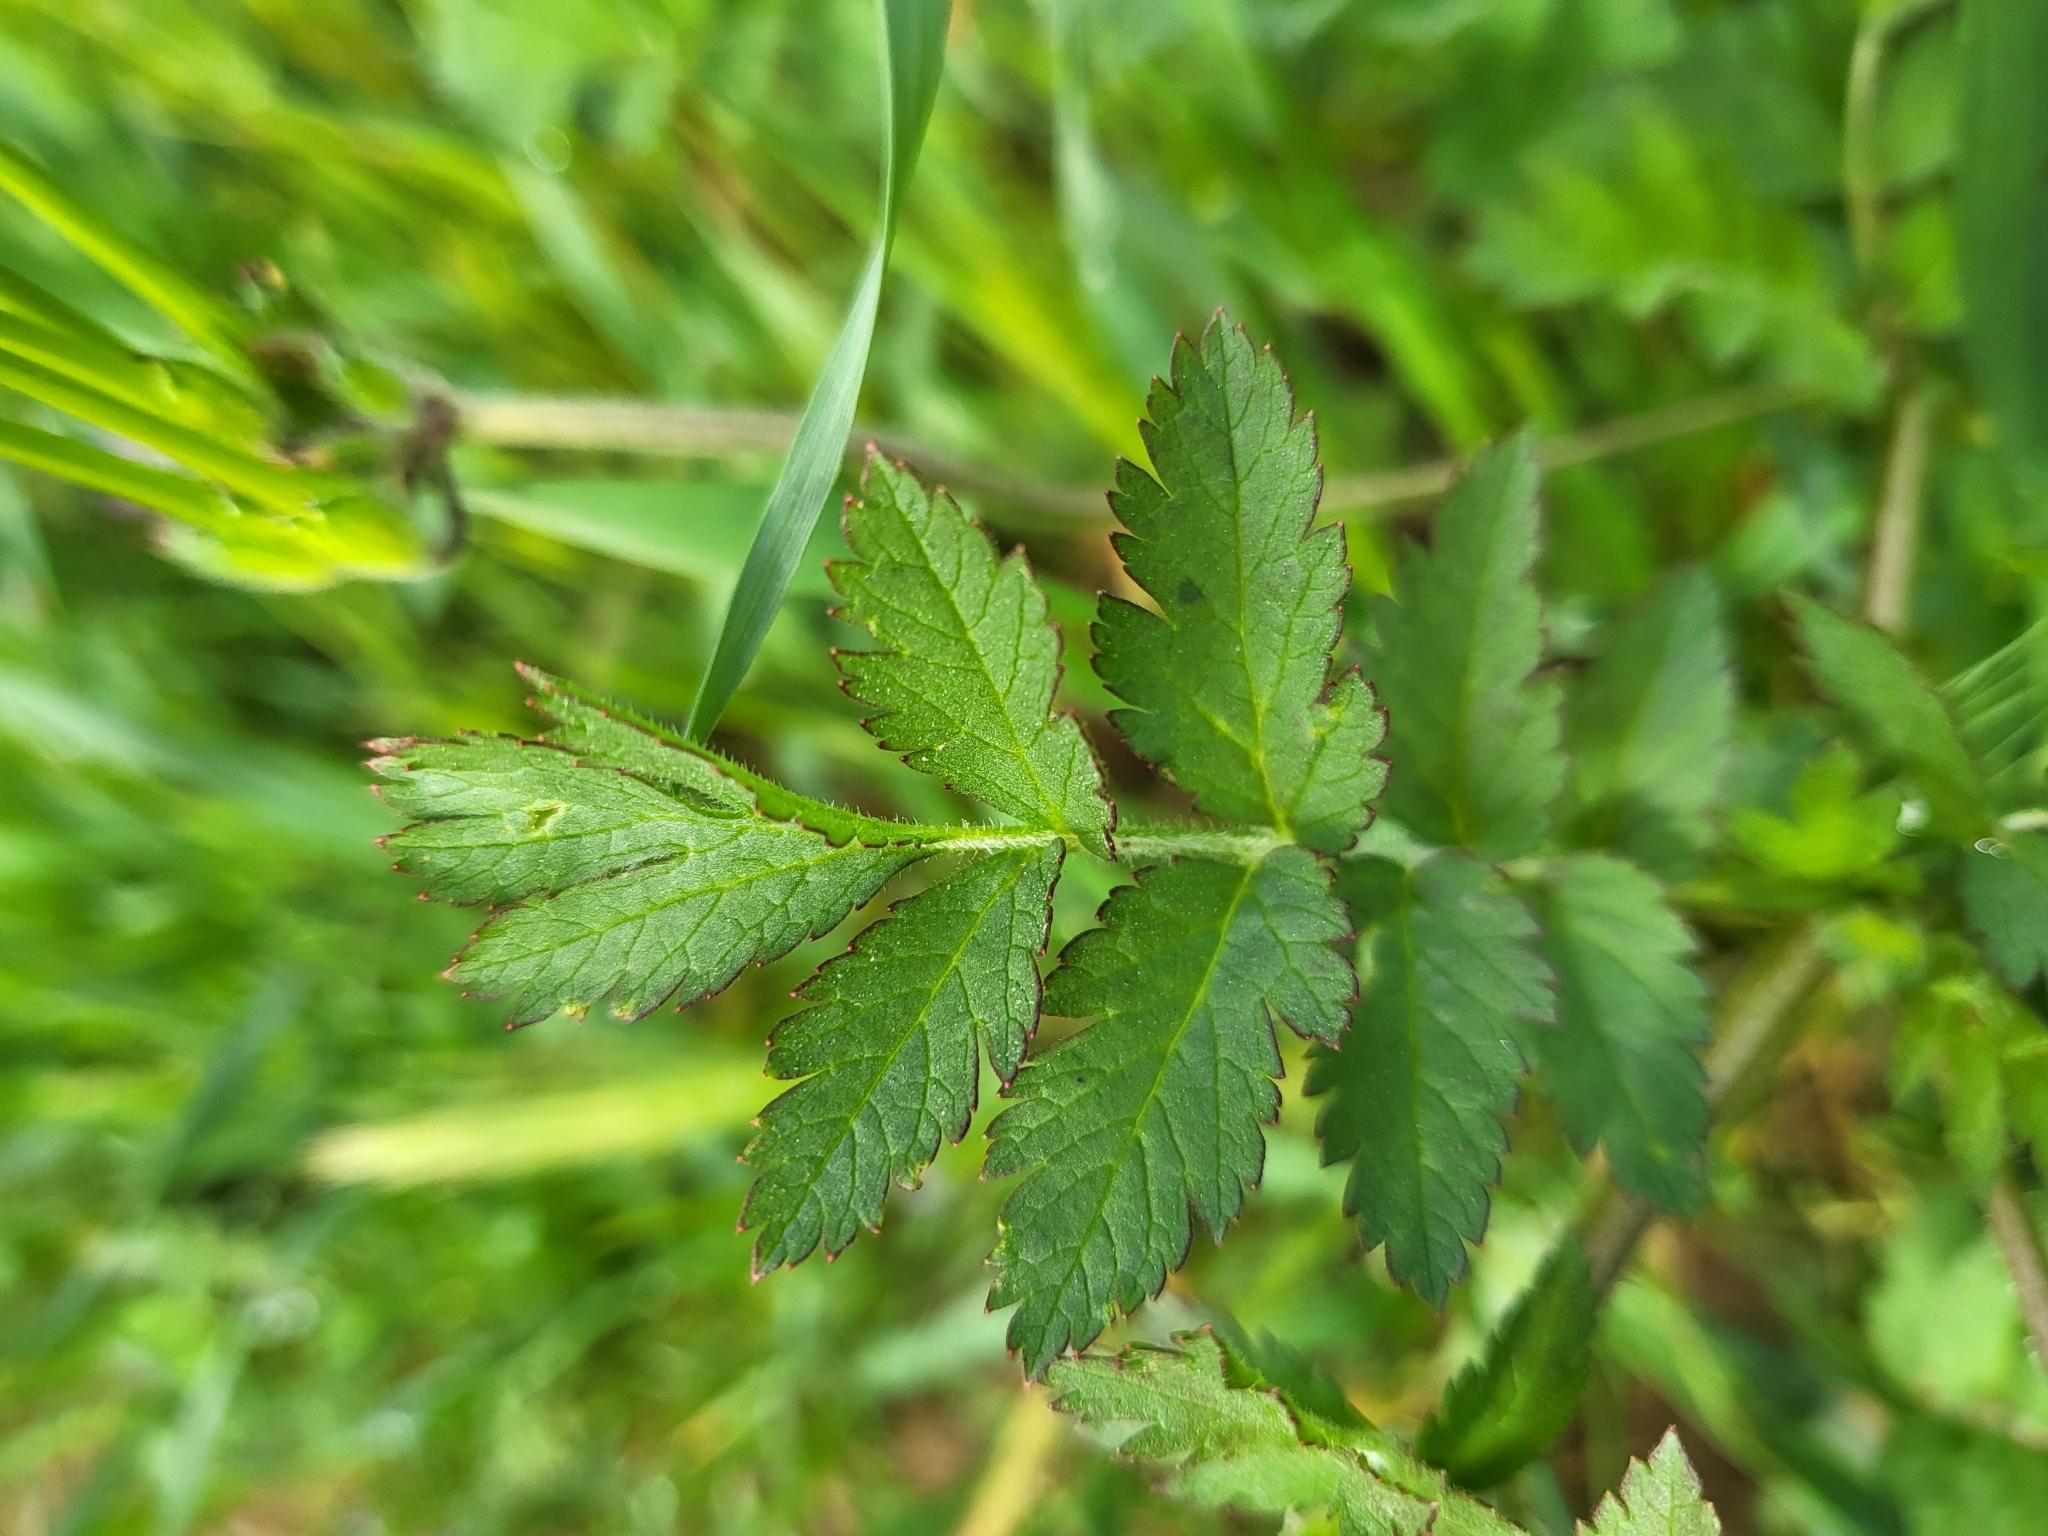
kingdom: Plantae
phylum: Tracheophyta
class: Magnoliopsida
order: Geraniales
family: Geraniaceae
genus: Erodium
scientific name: Erodium moschatum
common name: Musk stork's-bill
